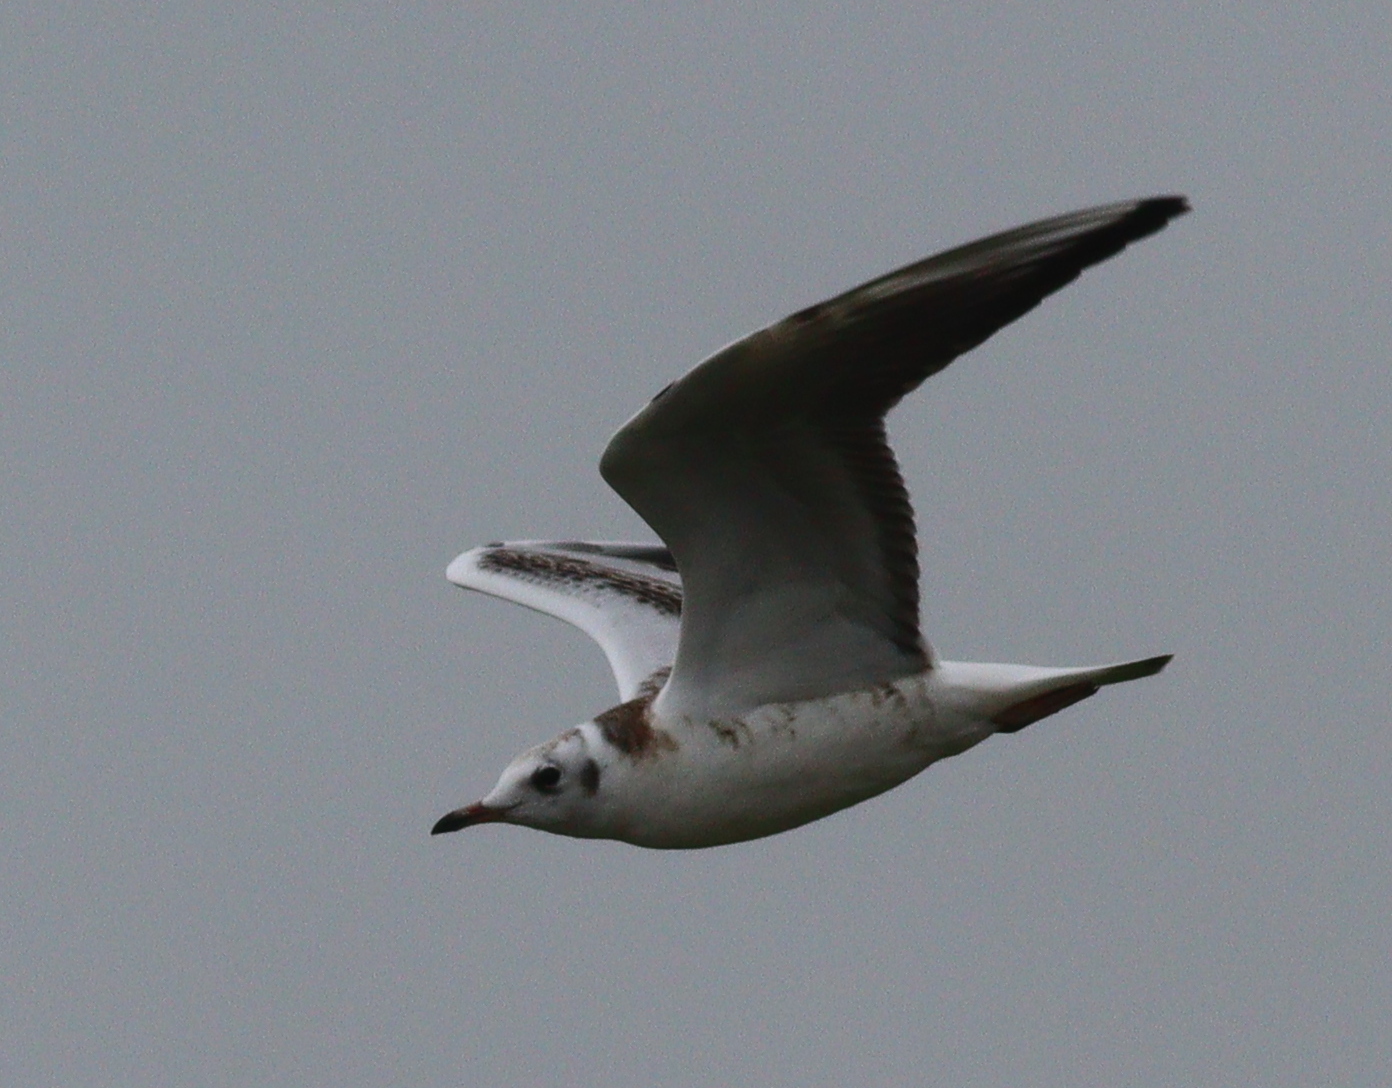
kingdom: Animalia
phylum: Chordata
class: Aves
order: Charadriiformes
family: Laridae
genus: Chroicocephalus
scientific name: Chroicocephalus ridibundus
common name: Black-headed gull
